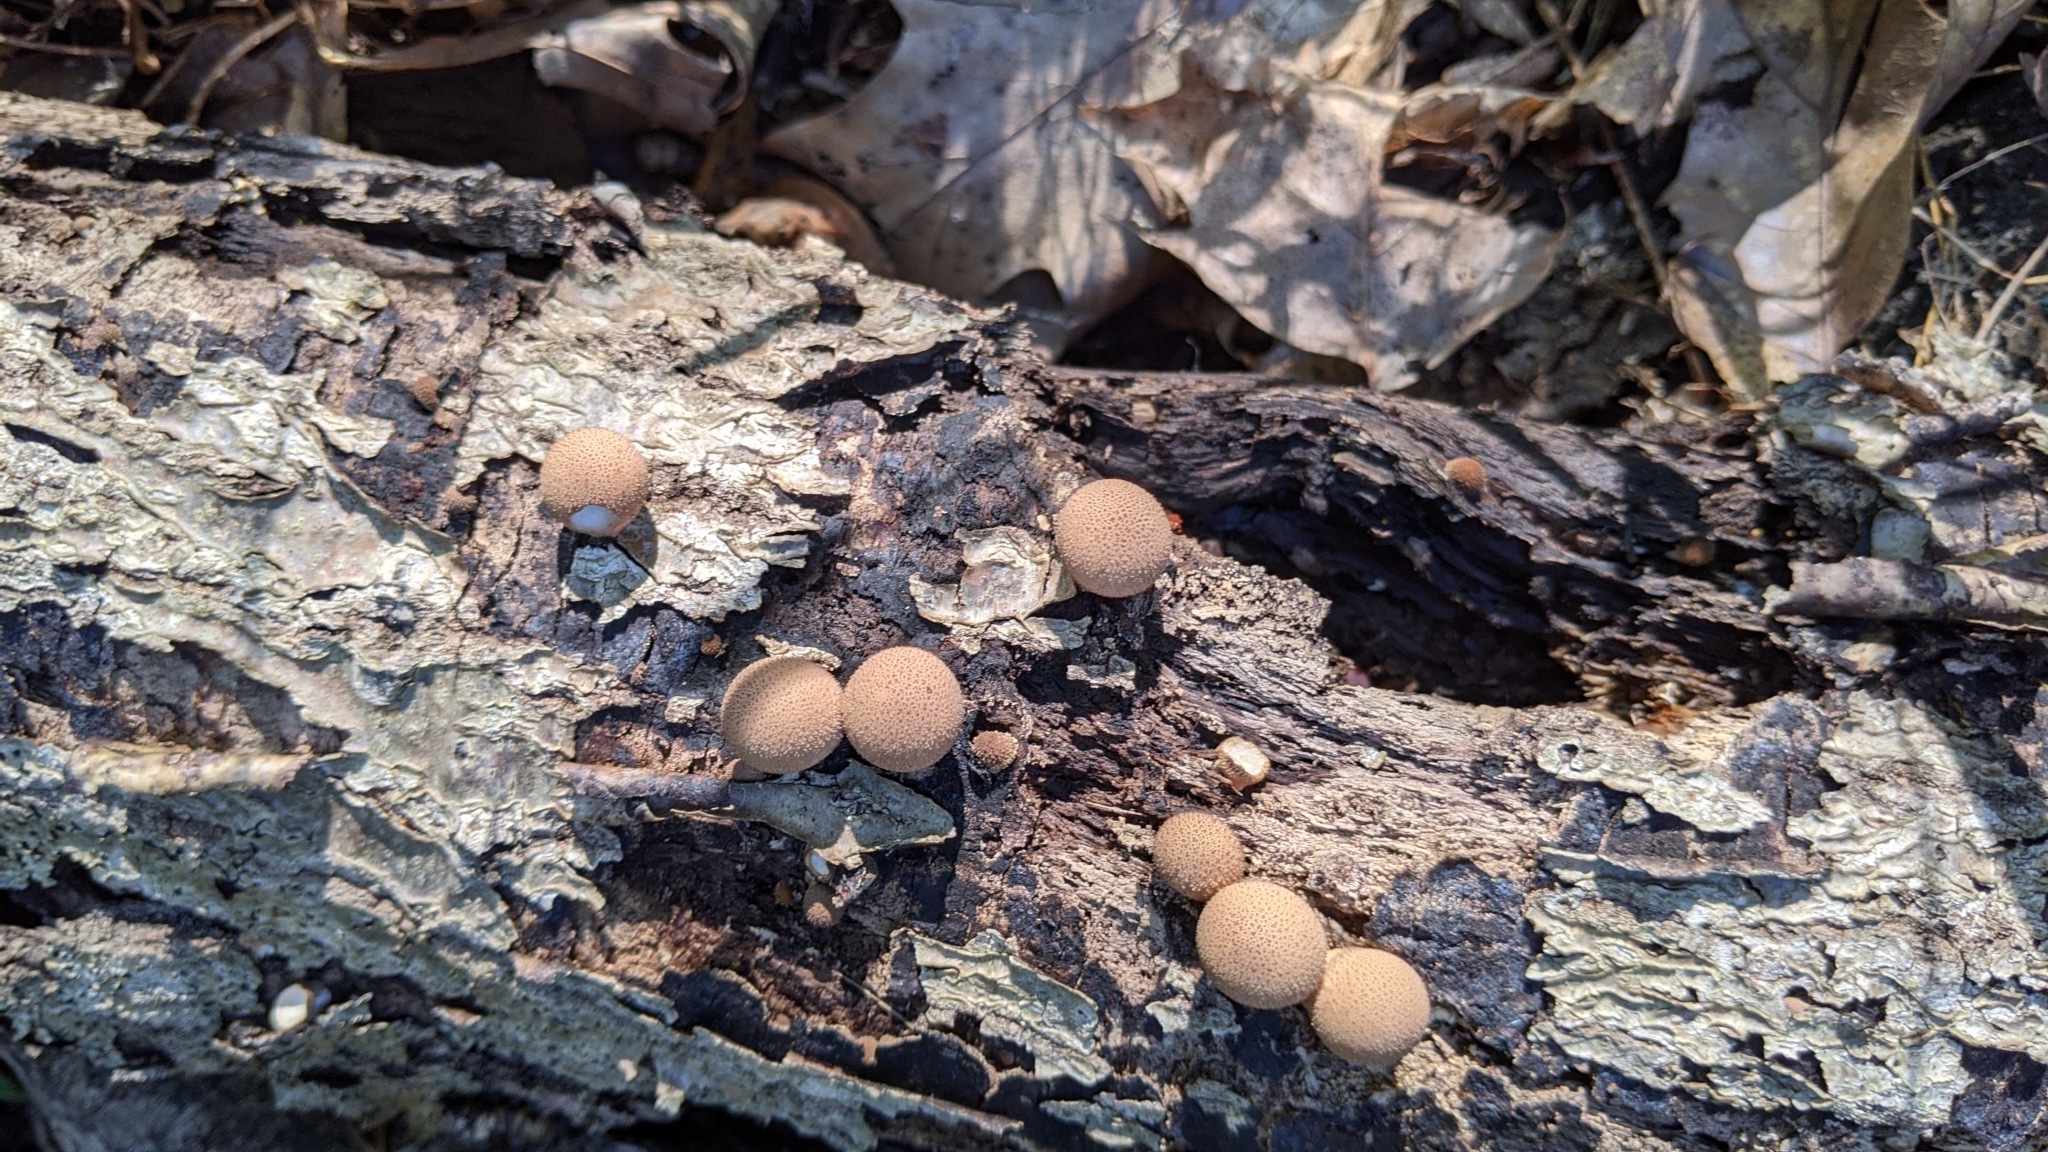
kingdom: Fungi
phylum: Basidiomycota
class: Agaricomycetes
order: Agaricales
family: Lycoperdaceae
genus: Apioperdon
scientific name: Apioperdon pyriforme
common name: Pear-shaped puffball
